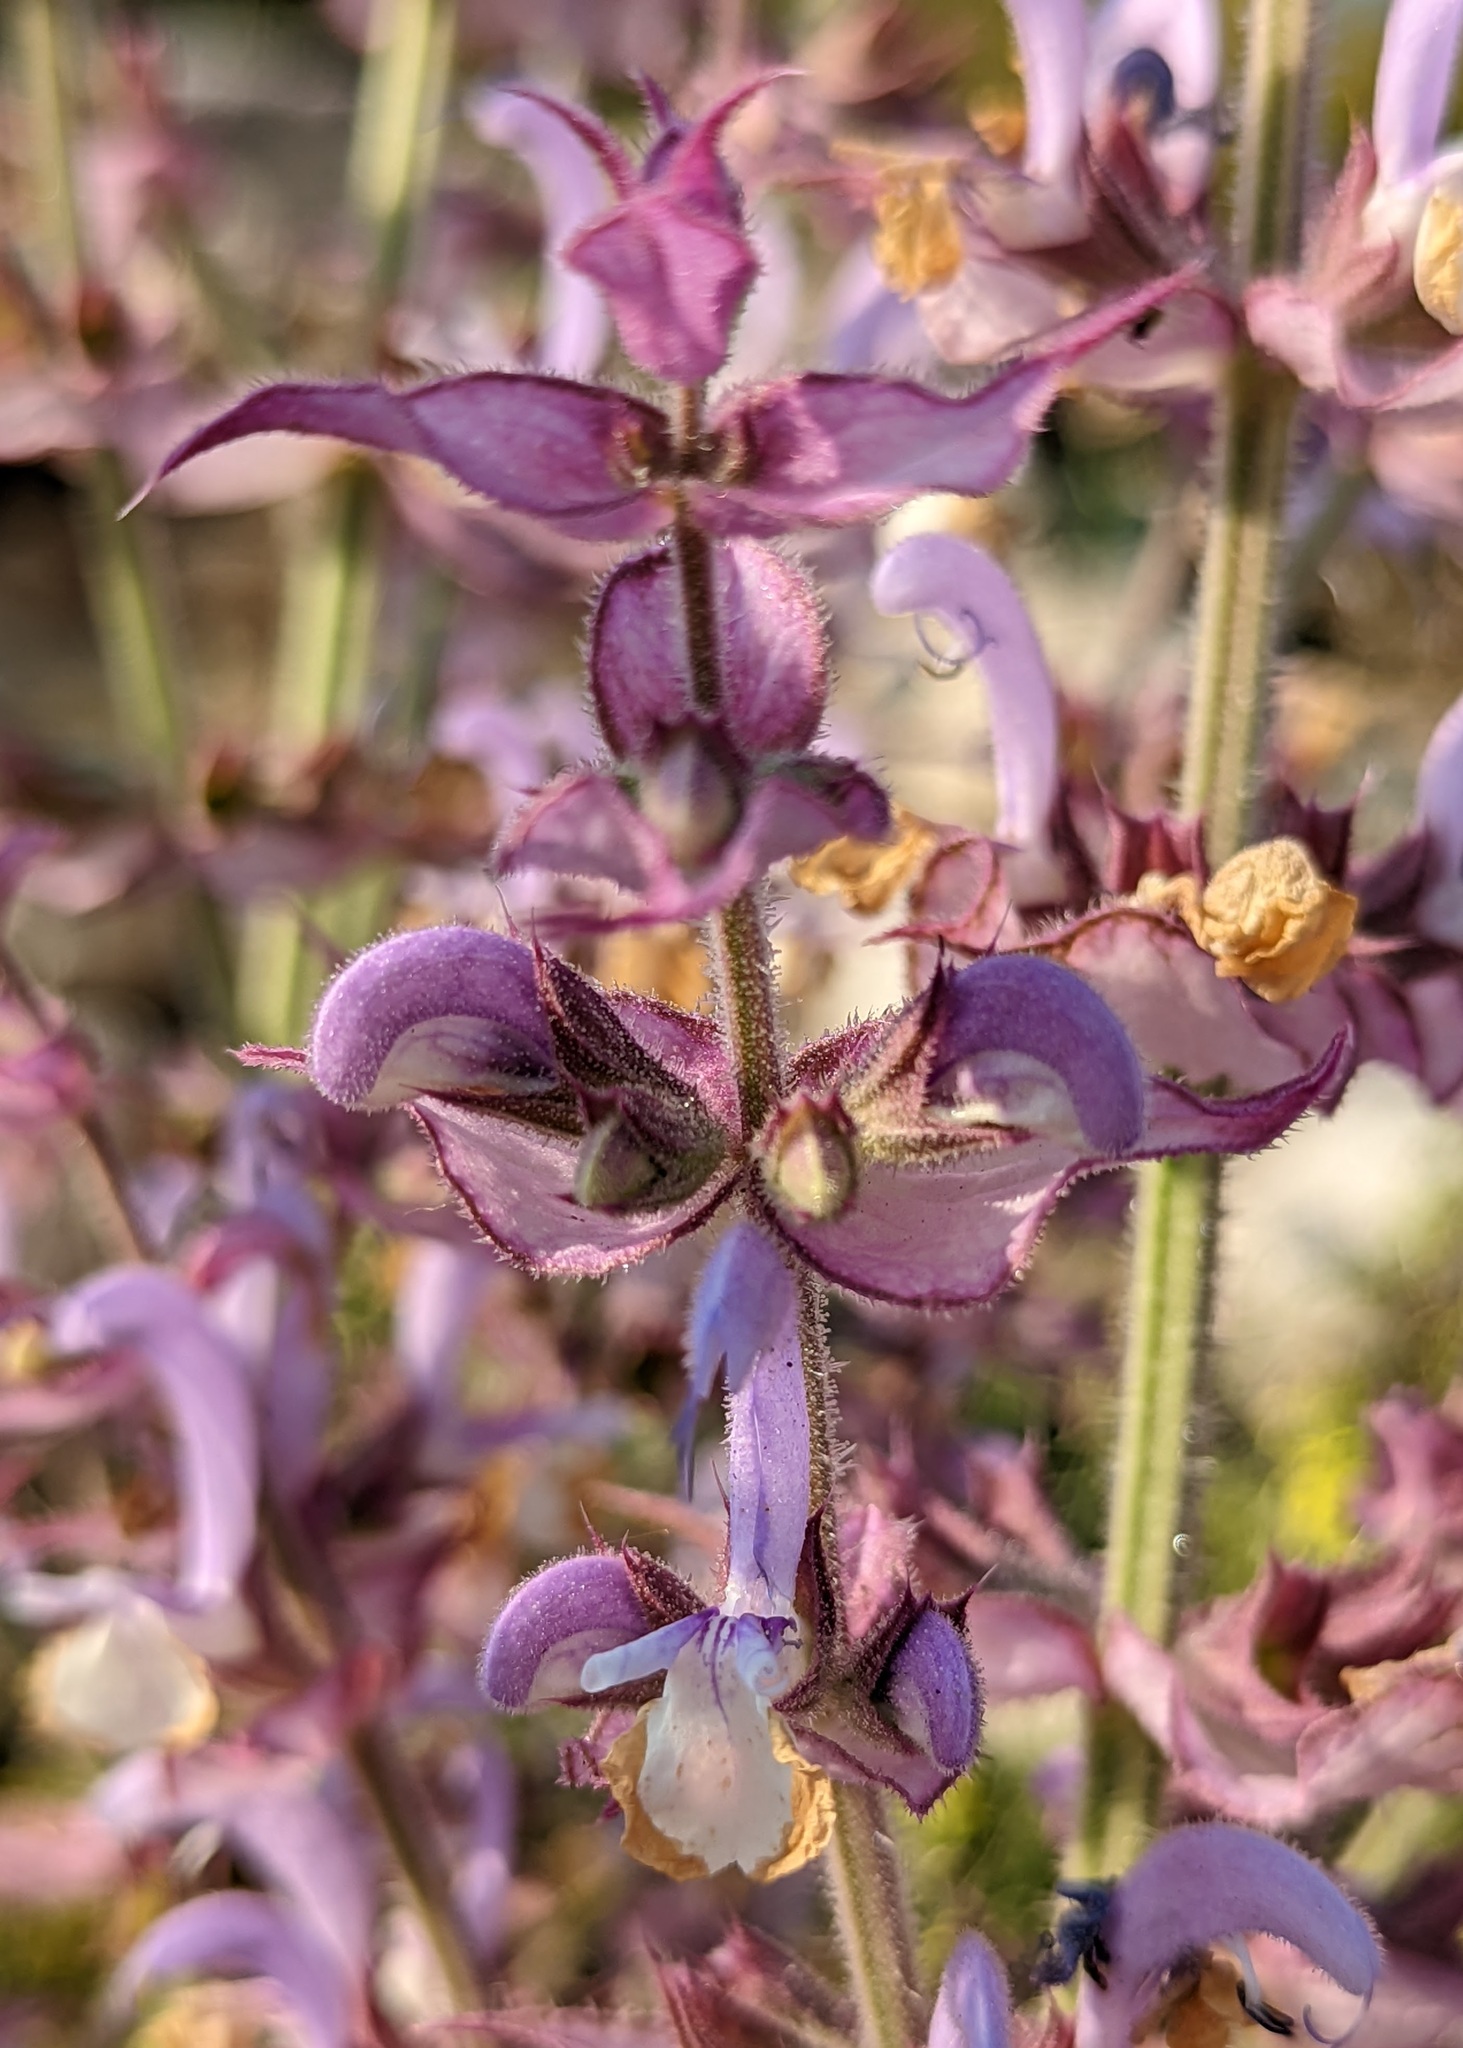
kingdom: Plantae
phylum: Tracheophyta
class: Magnoliopsida
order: Lamiales
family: Lamiaceae
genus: Salvia
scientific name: Salvia sclarea
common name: Clary
